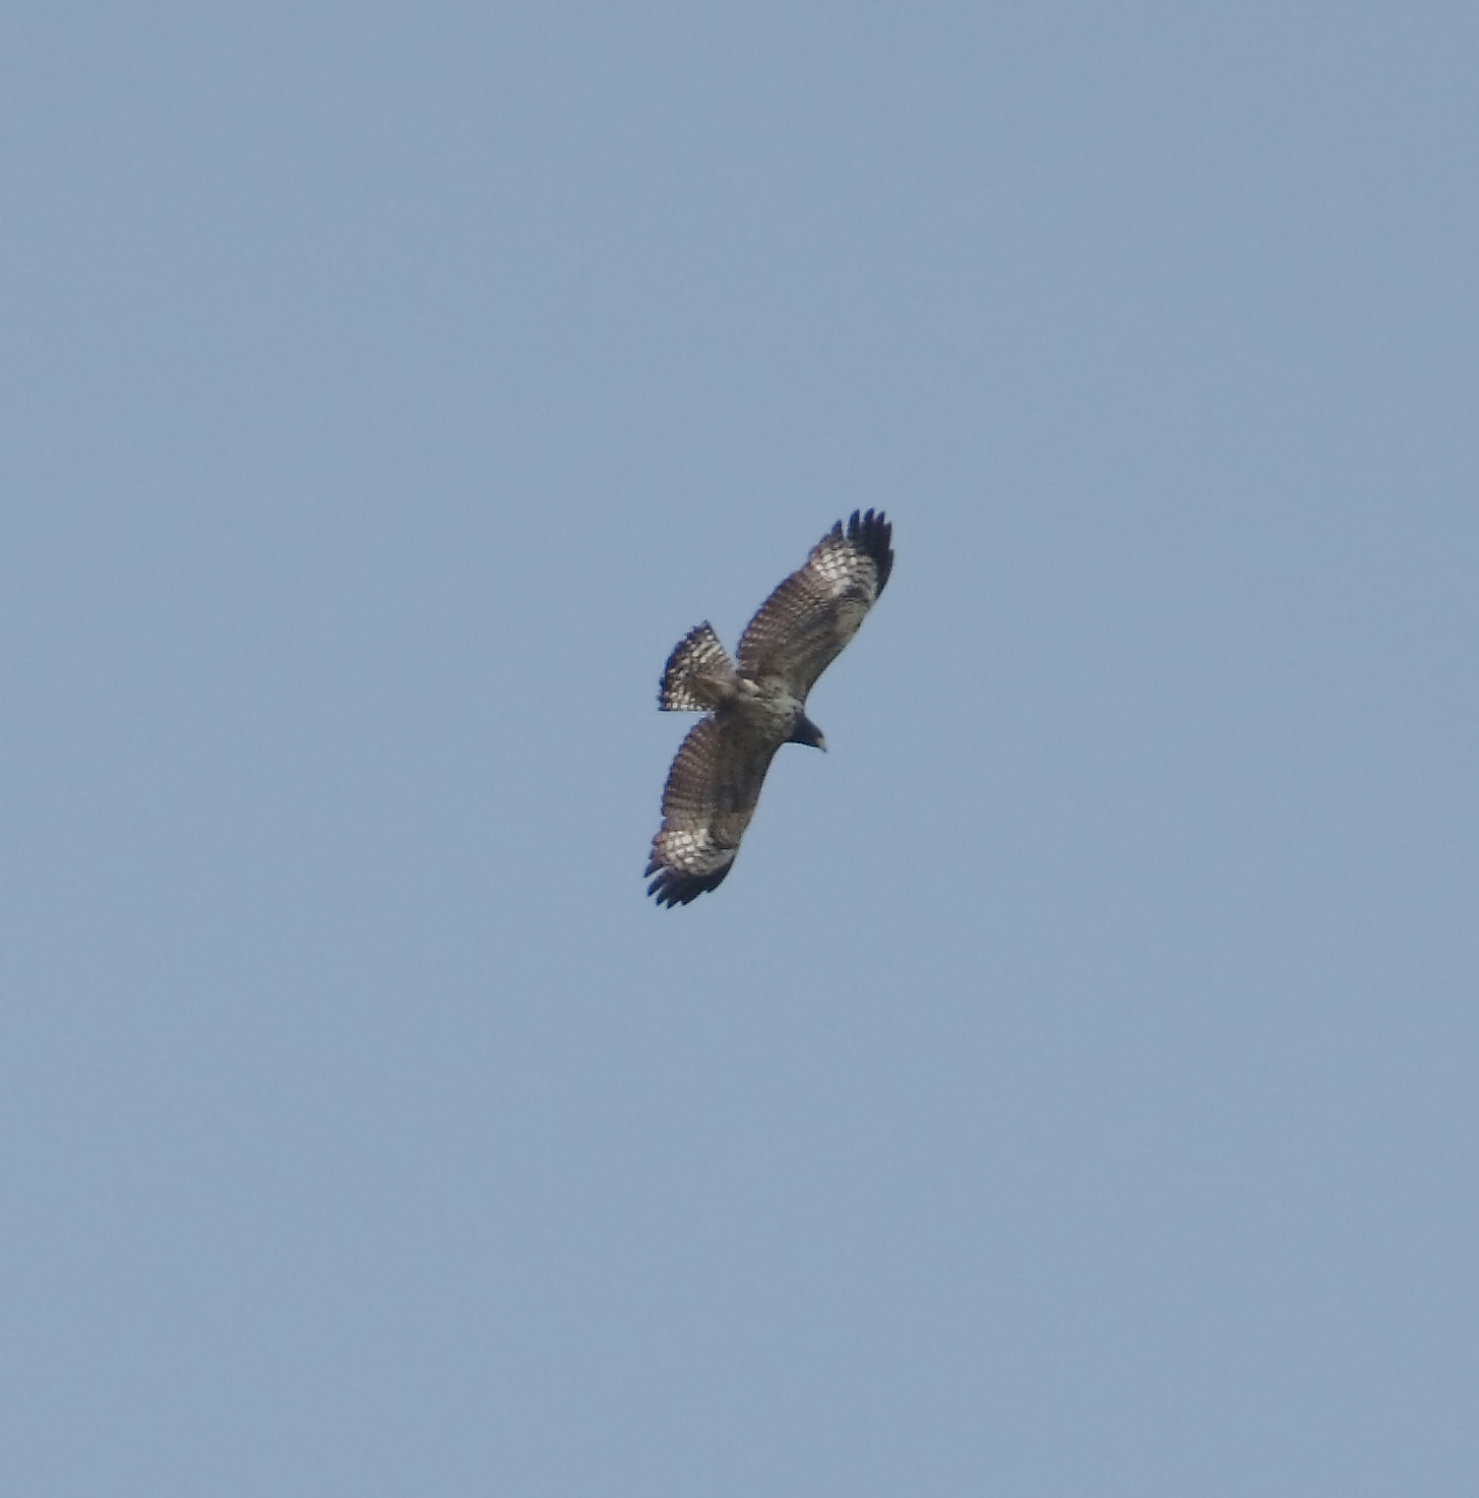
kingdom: Animalia
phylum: Chordata
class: Aves
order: Accipitriformes
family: Accipitridae
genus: Buteogallus
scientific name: Buteogallus anthracinus
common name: Common black hawk
